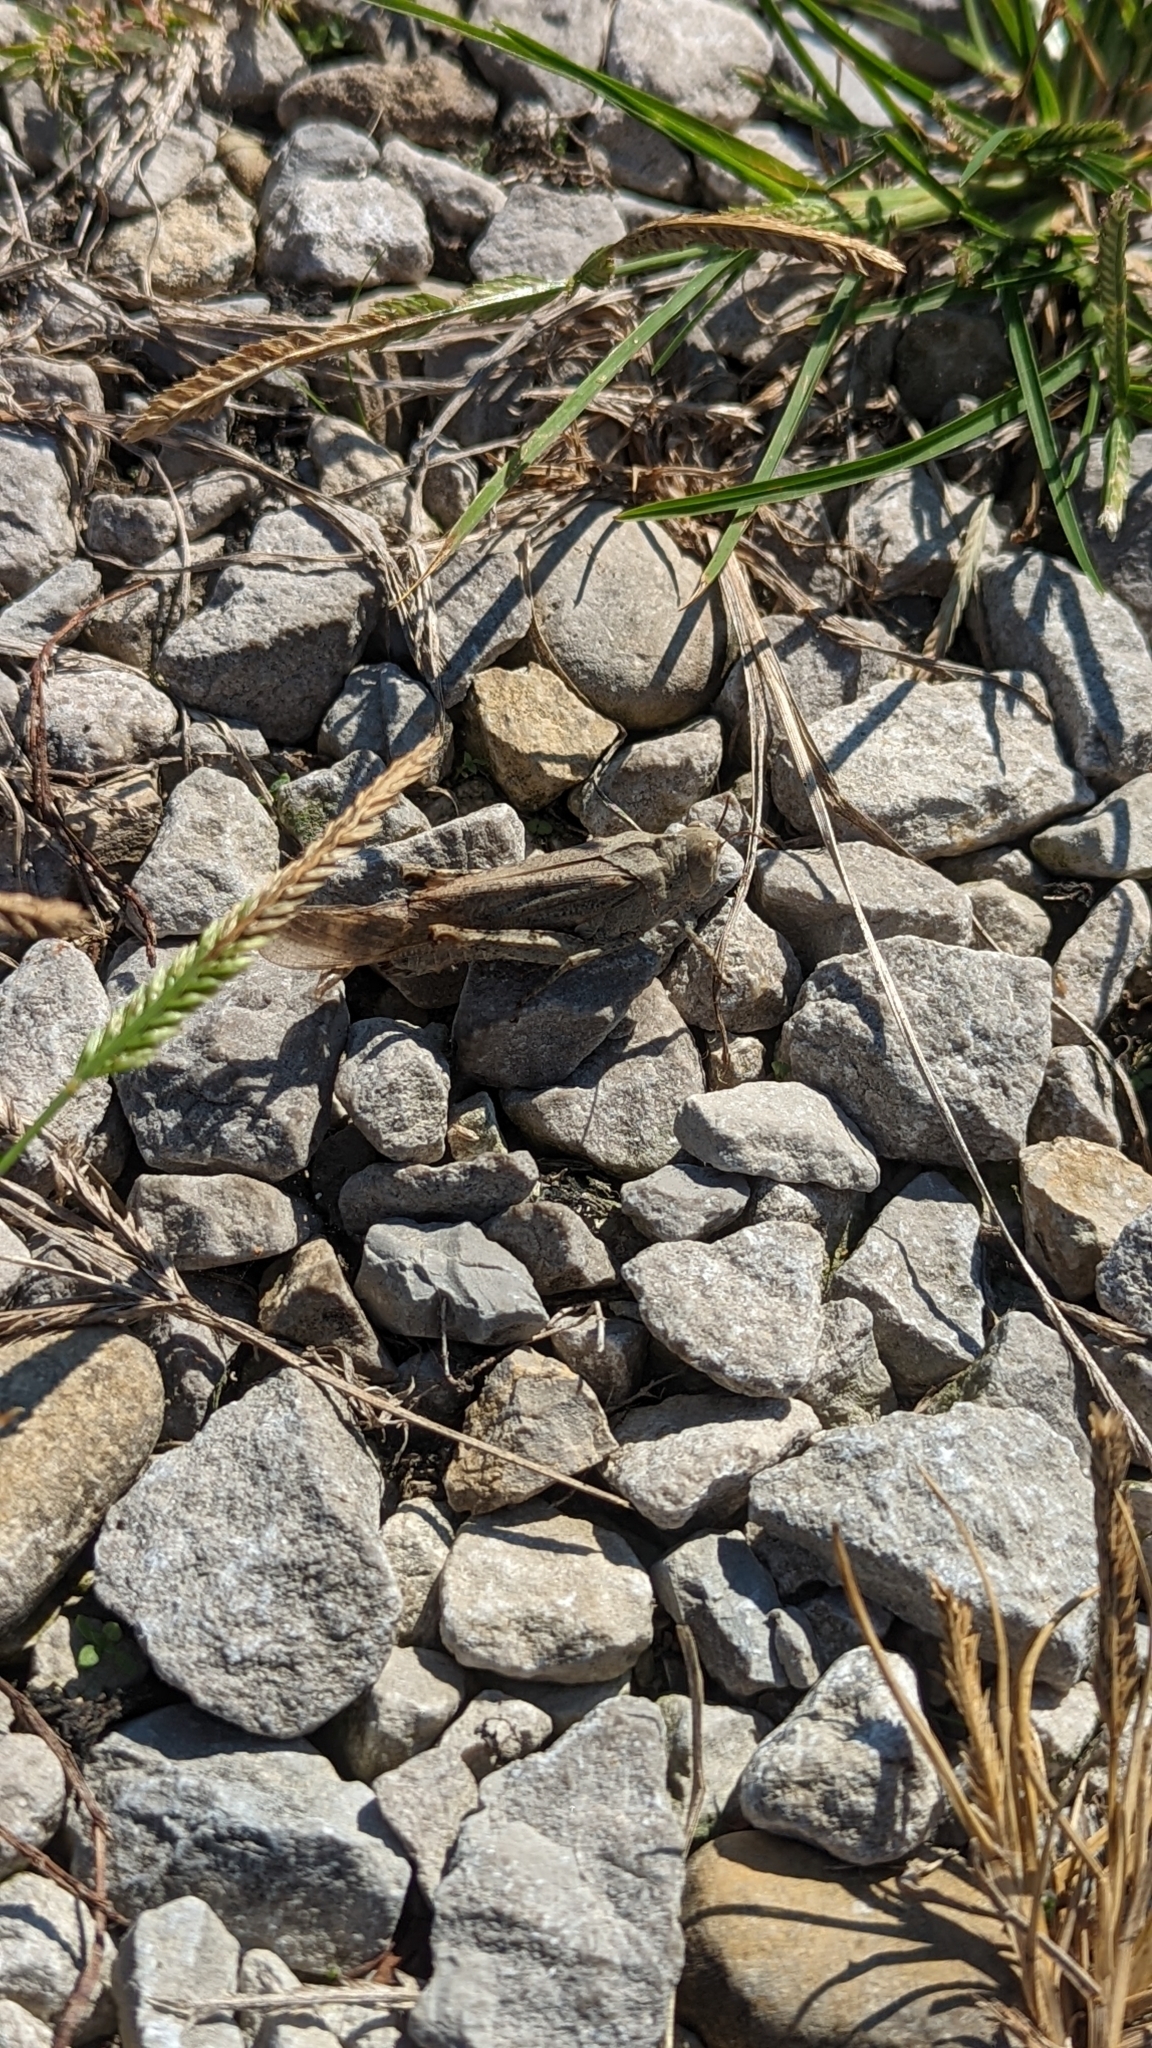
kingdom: Animalia
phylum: Arthropoda
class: Insecta
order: Orthoptera
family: Acrididae
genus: Dissosteira
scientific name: Dissosteira carolina
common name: Carolina grasshopper
